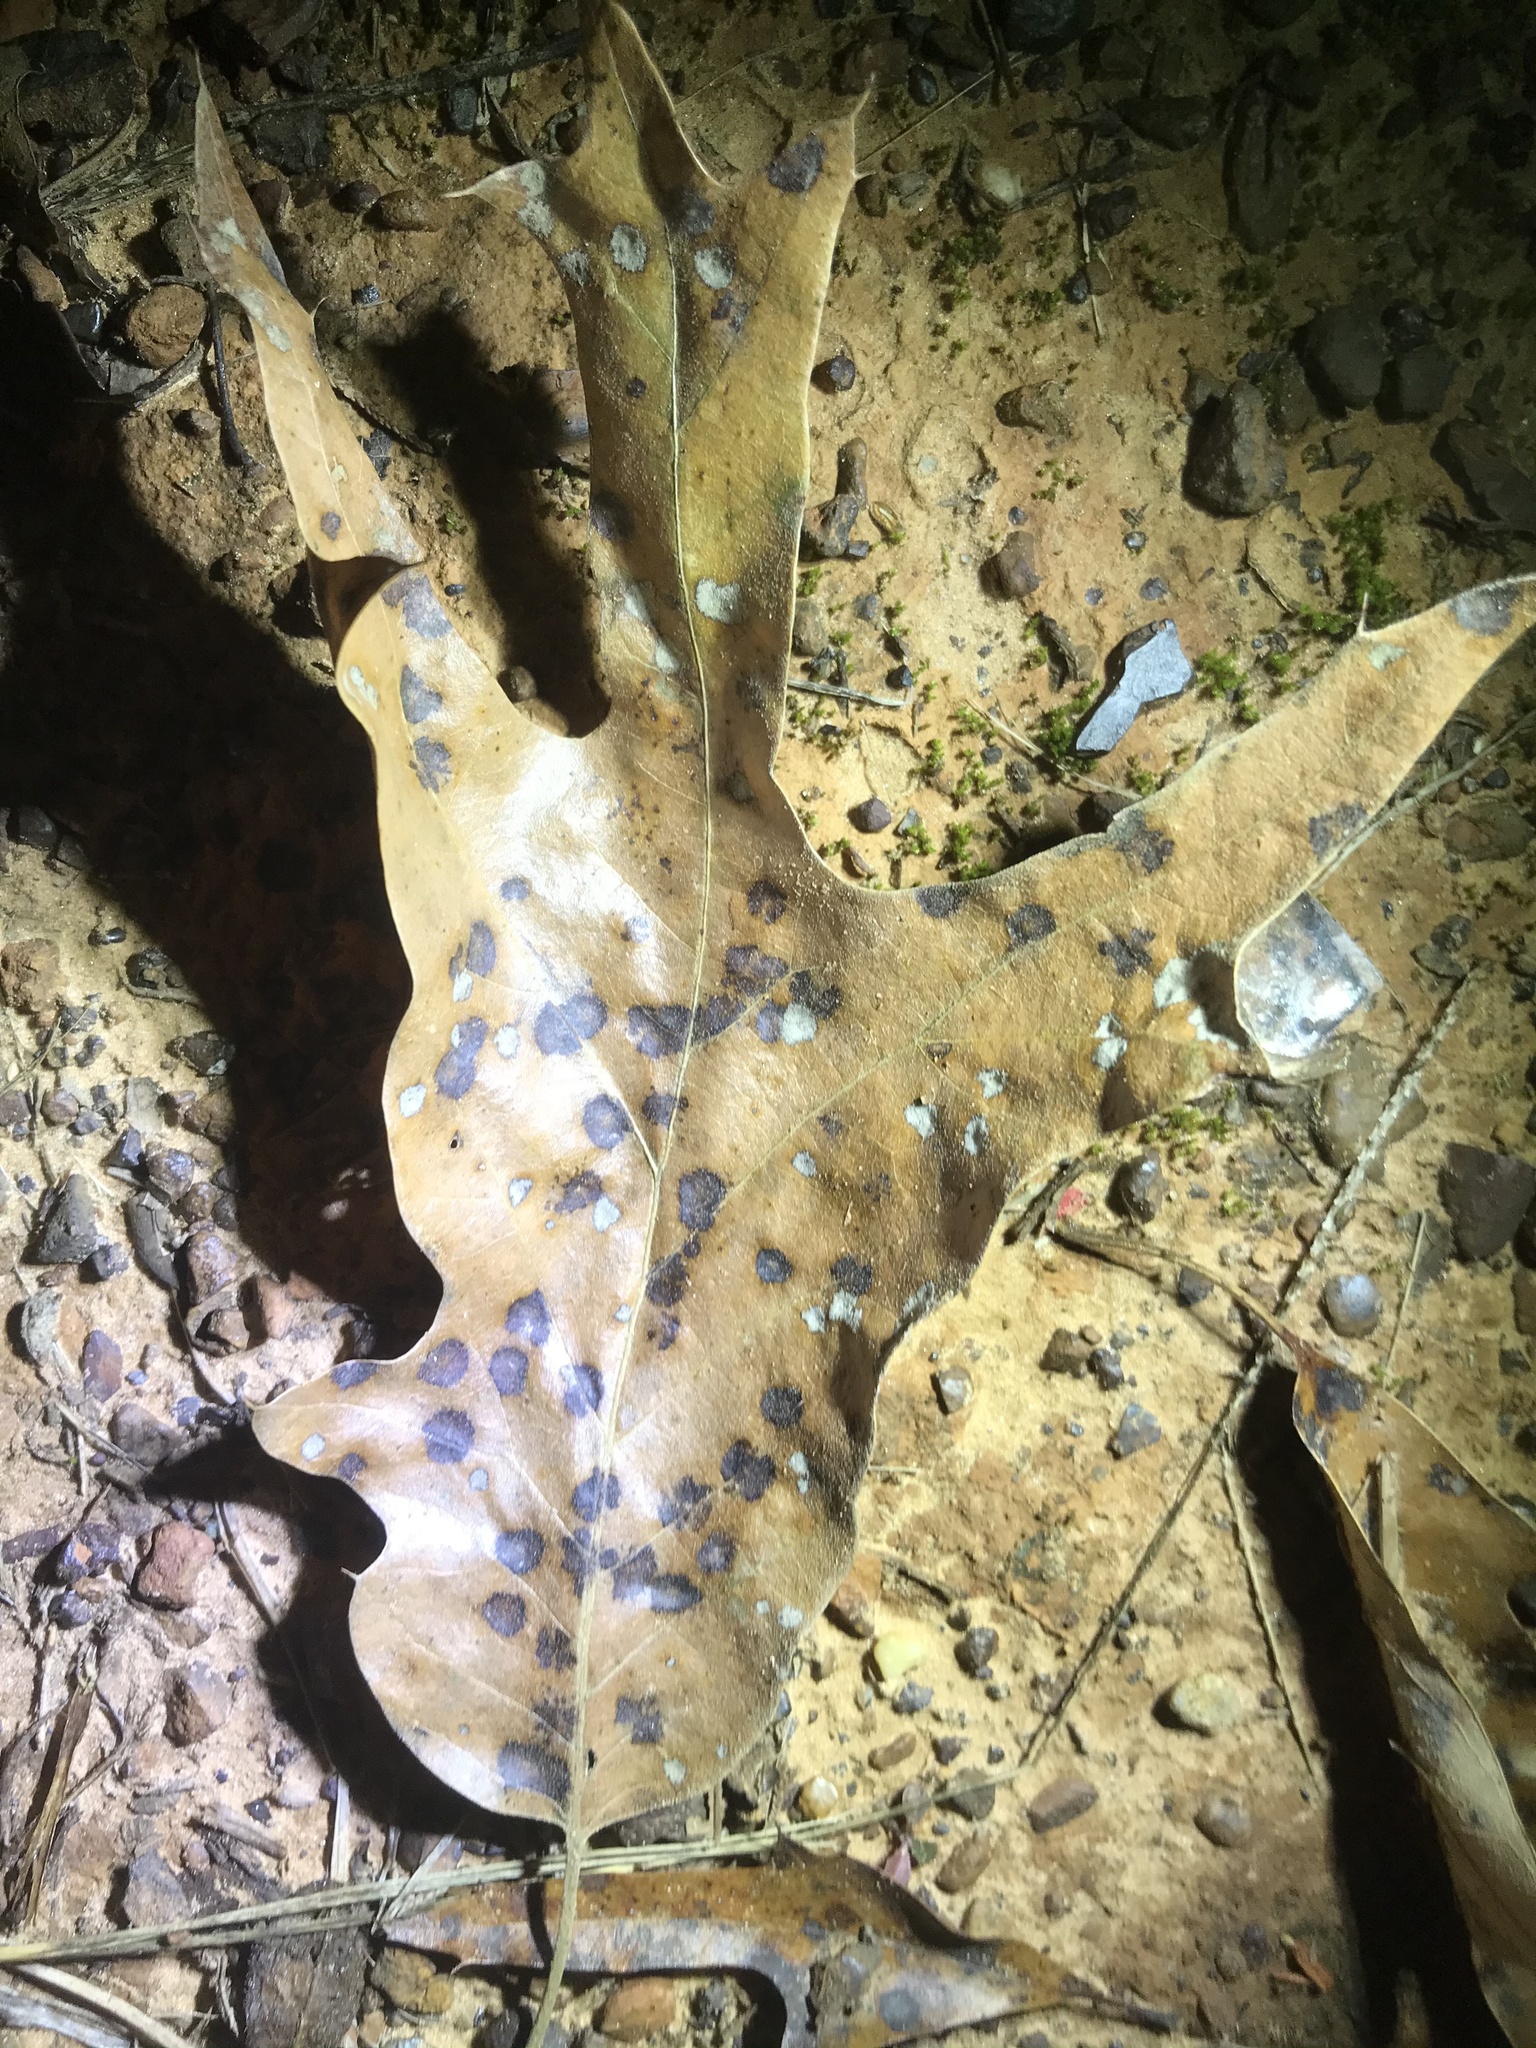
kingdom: Animalia
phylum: Arthropoda
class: Insecta
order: Diptera
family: Cecidomyiidae
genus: Polystepha
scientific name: Polystepha quercifolia
